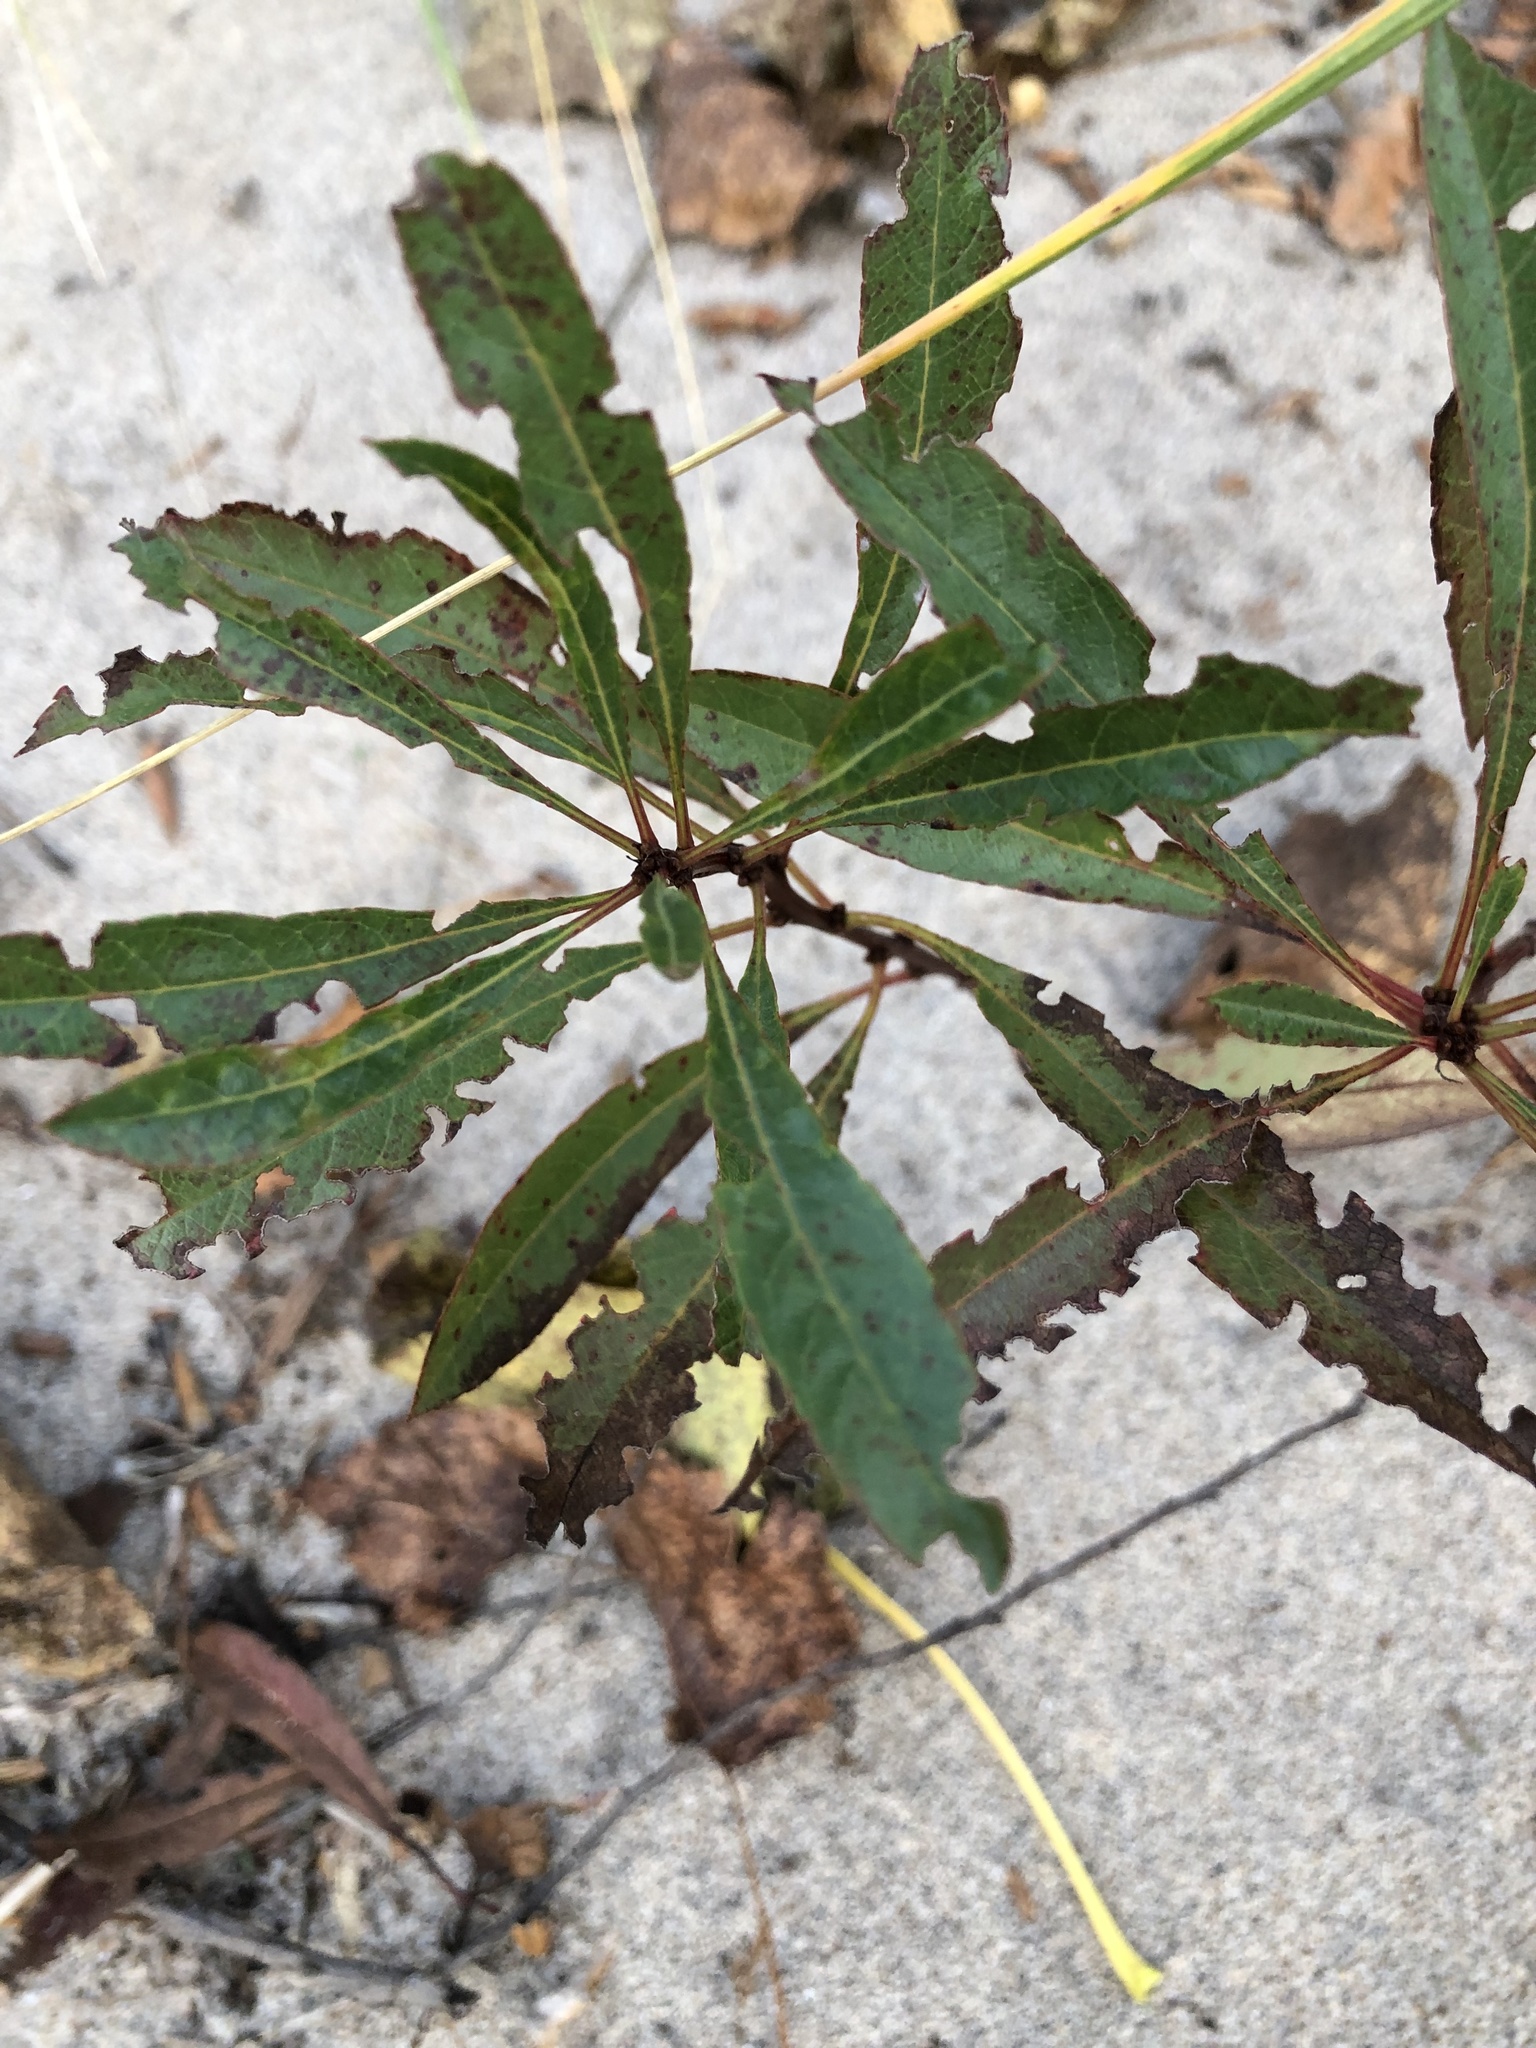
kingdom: Plantae
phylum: Tracheophyta
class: Magnoliopsida
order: Rosales
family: Rosaceae
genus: Prunus
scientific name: Prunus pumila
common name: Dwarf cherry
